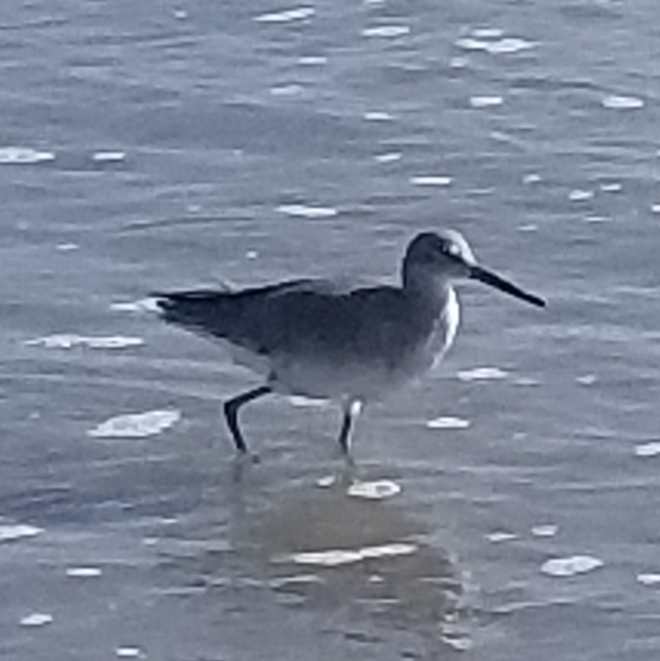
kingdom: Animalia
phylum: Chordata
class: Aves
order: Charadriiformes
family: Scolopacidae
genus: Tringa
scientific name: Tringa semipalmata
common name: Willet
